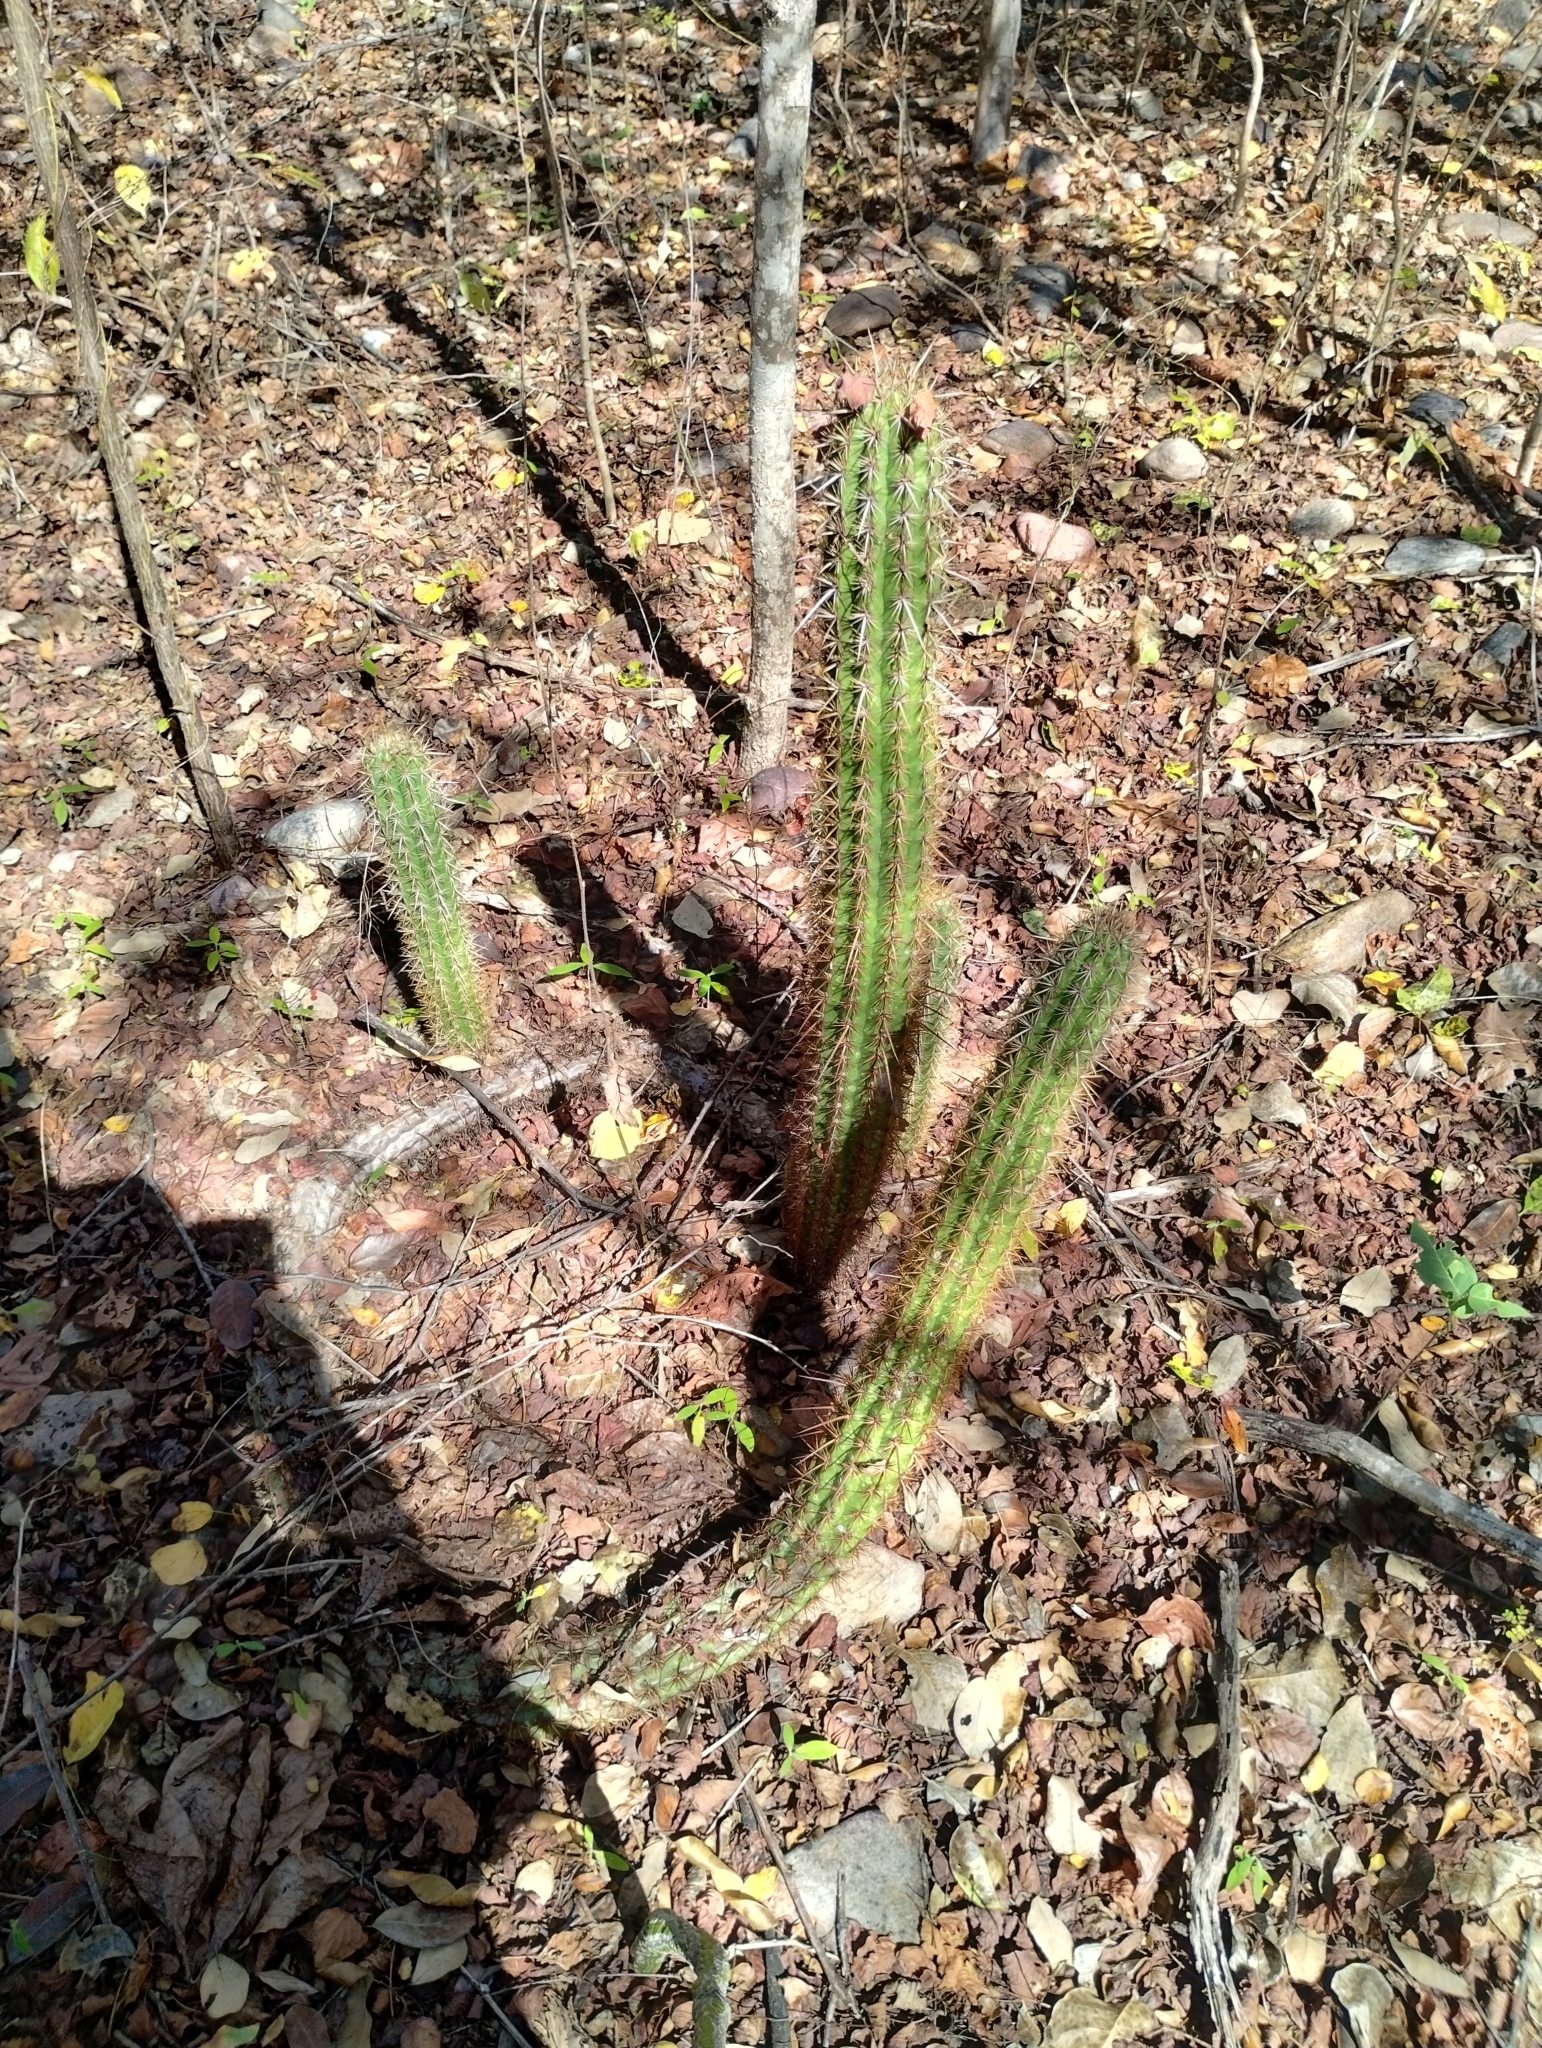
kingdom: Plantae
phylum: Tracheophyta
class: Magnoliopsida
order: Caryophyllales
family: Cactaceae
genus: Xiquexique
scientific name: Xiquexique gounellei
